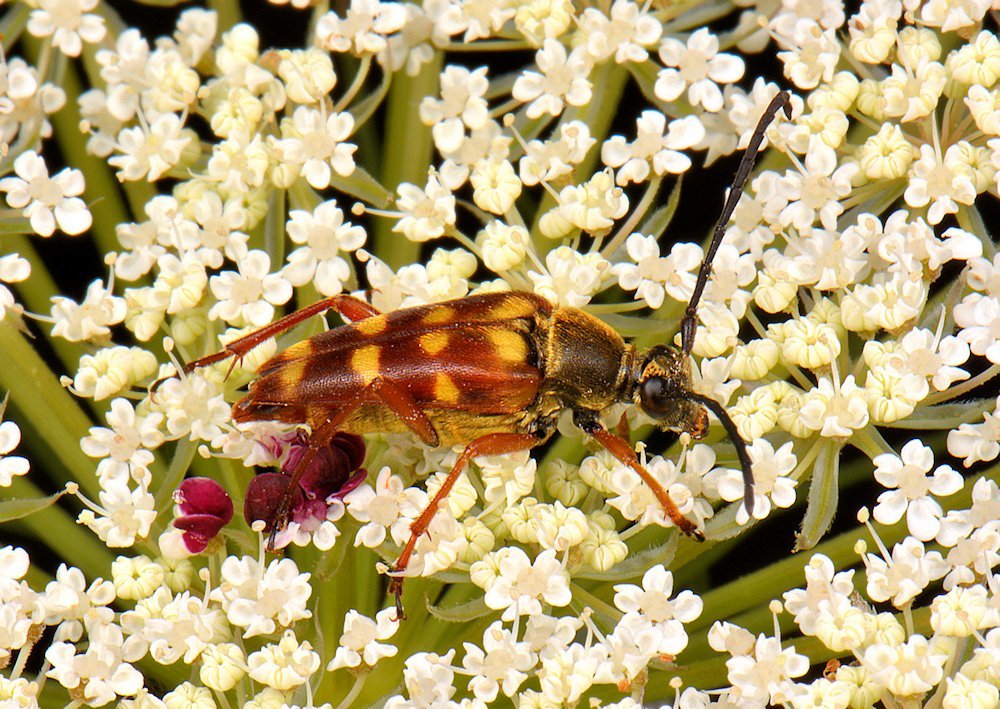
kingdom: Animalia
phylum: Arthropoda
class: Insecta
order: Coleoptera
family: Cerambycidae
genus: Typocerus
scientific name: Typocerus velutinus
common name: Banded longhorn beetle
